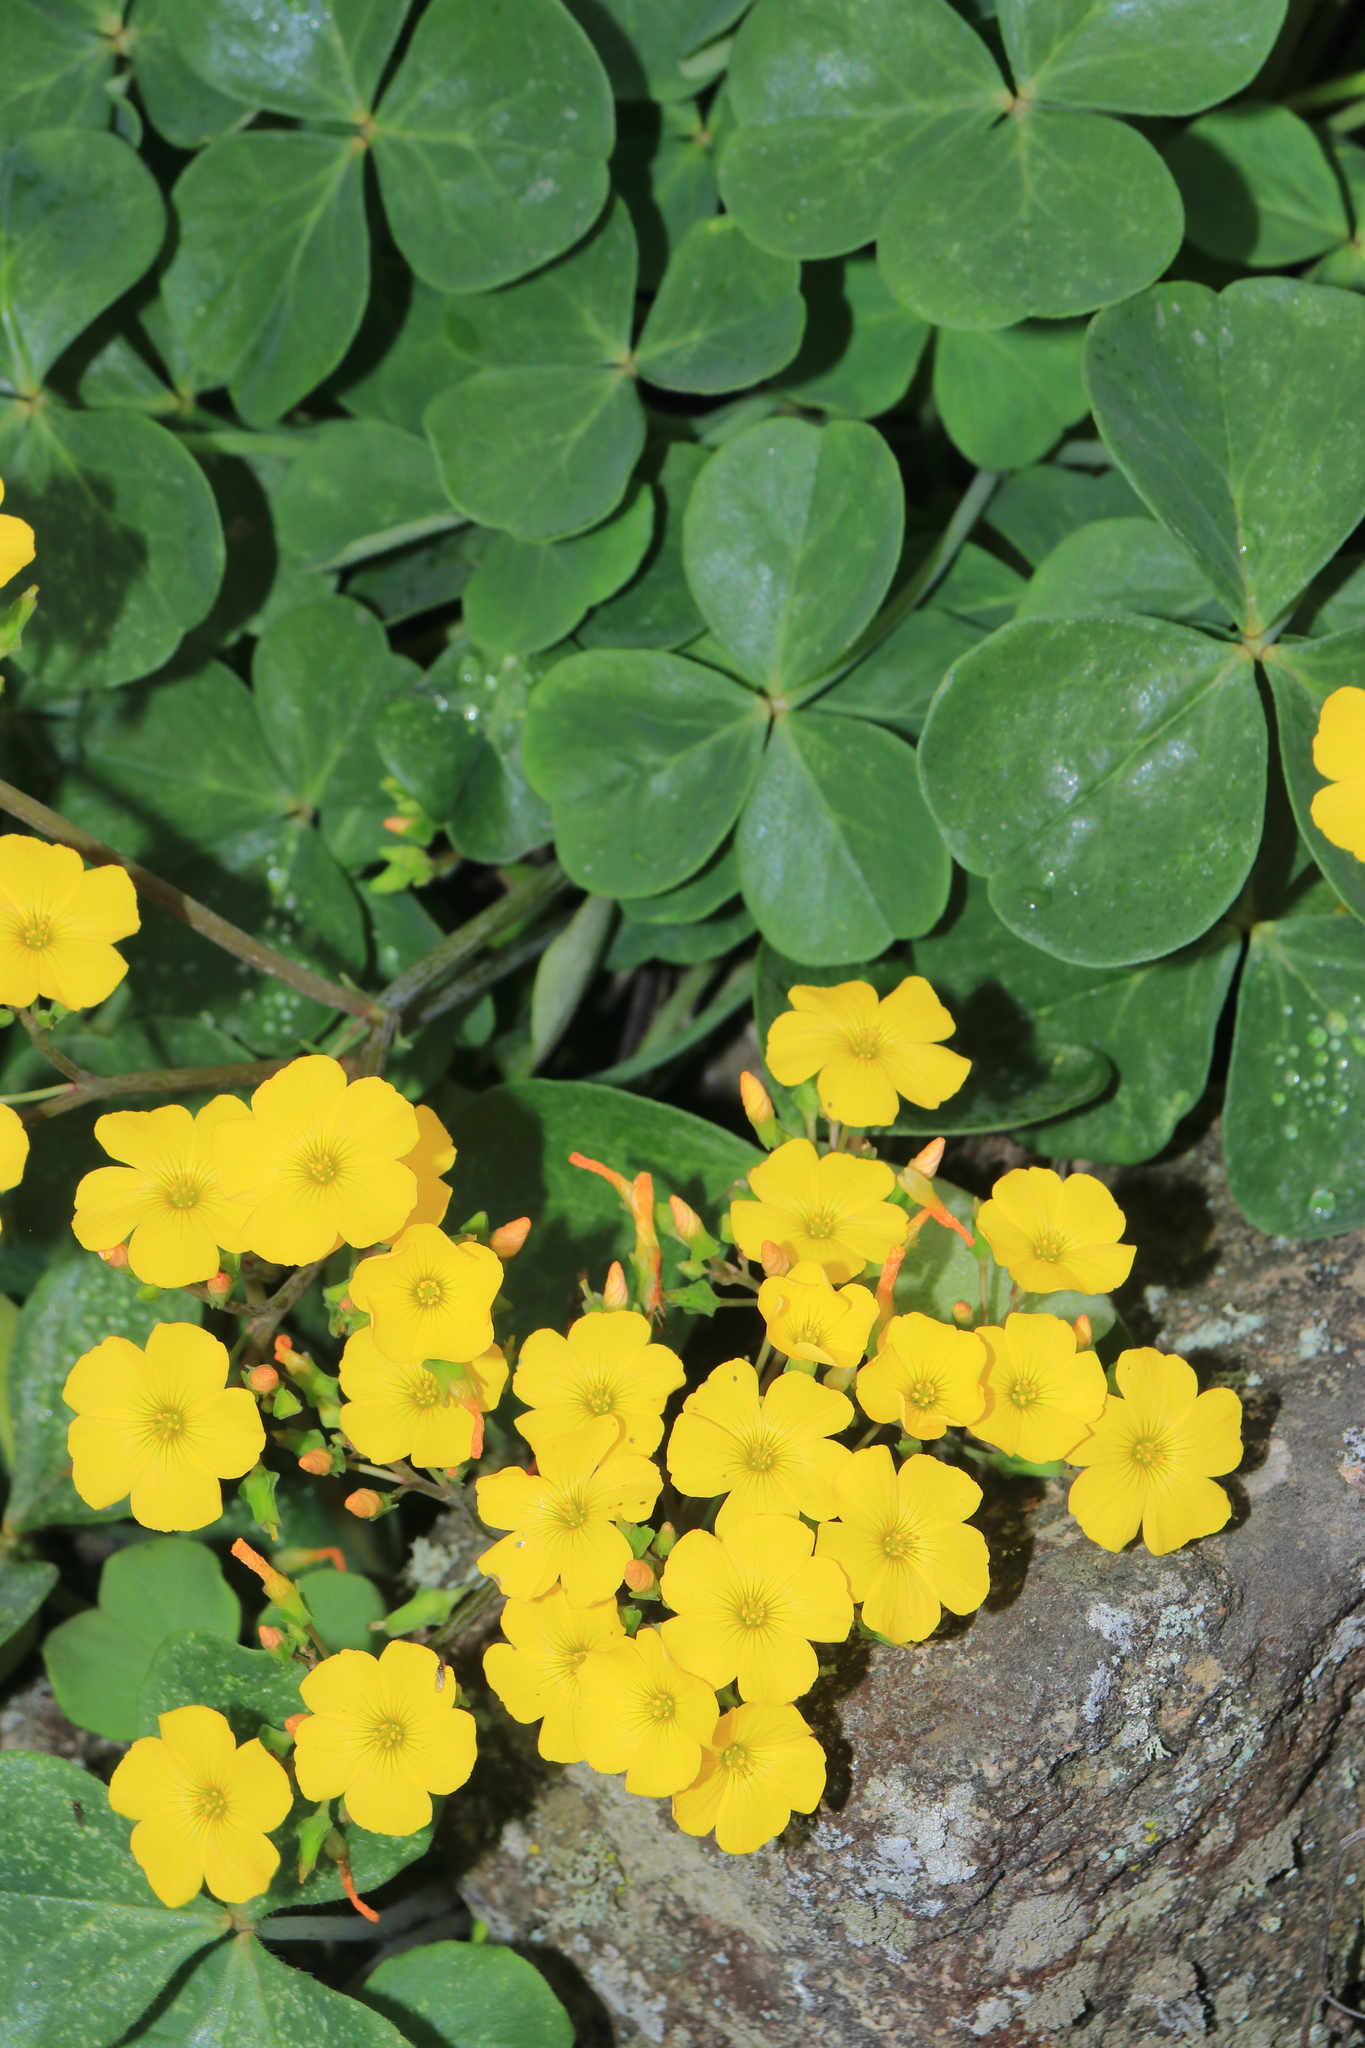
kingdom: Plantae
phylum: Tracheophyta
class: Magnoliopsida
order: Oxalidales
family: Oxalidaceae
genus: Oxalis
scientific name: Oxalis megalorrhiza
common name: Fleshy yellow-sorrel
